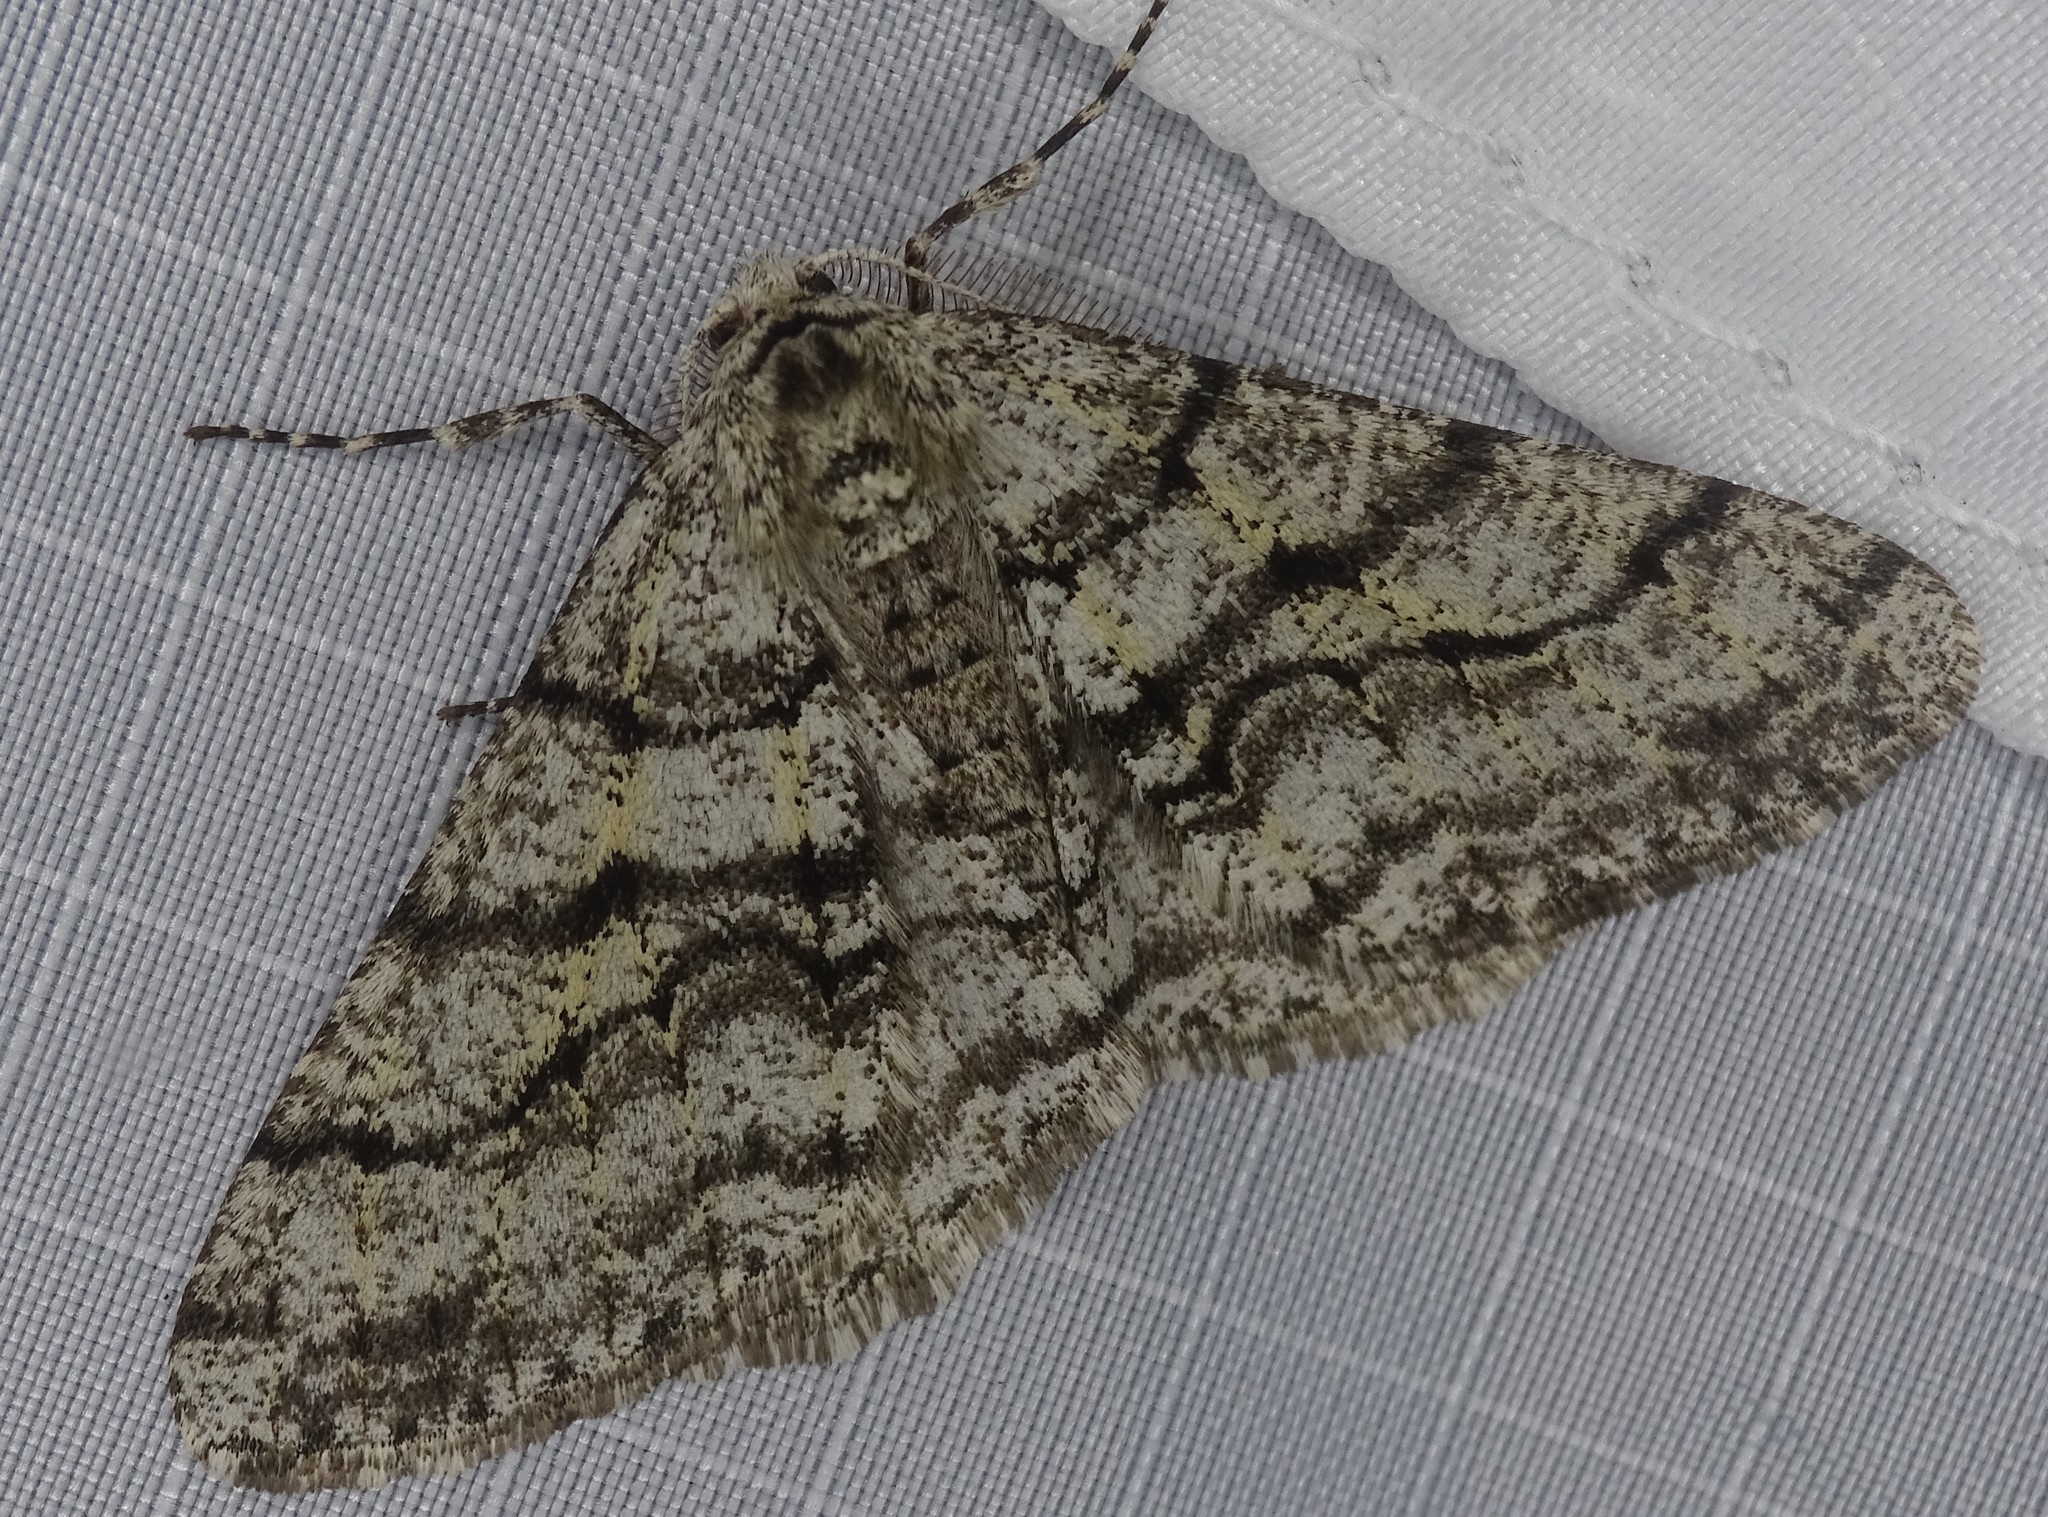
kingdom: Animalia
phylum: Arthropoda
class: Insecta
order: Lepidoptera
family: Geometridae
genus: Phigalia
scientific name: Phigalia titea
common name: Spiny looper
